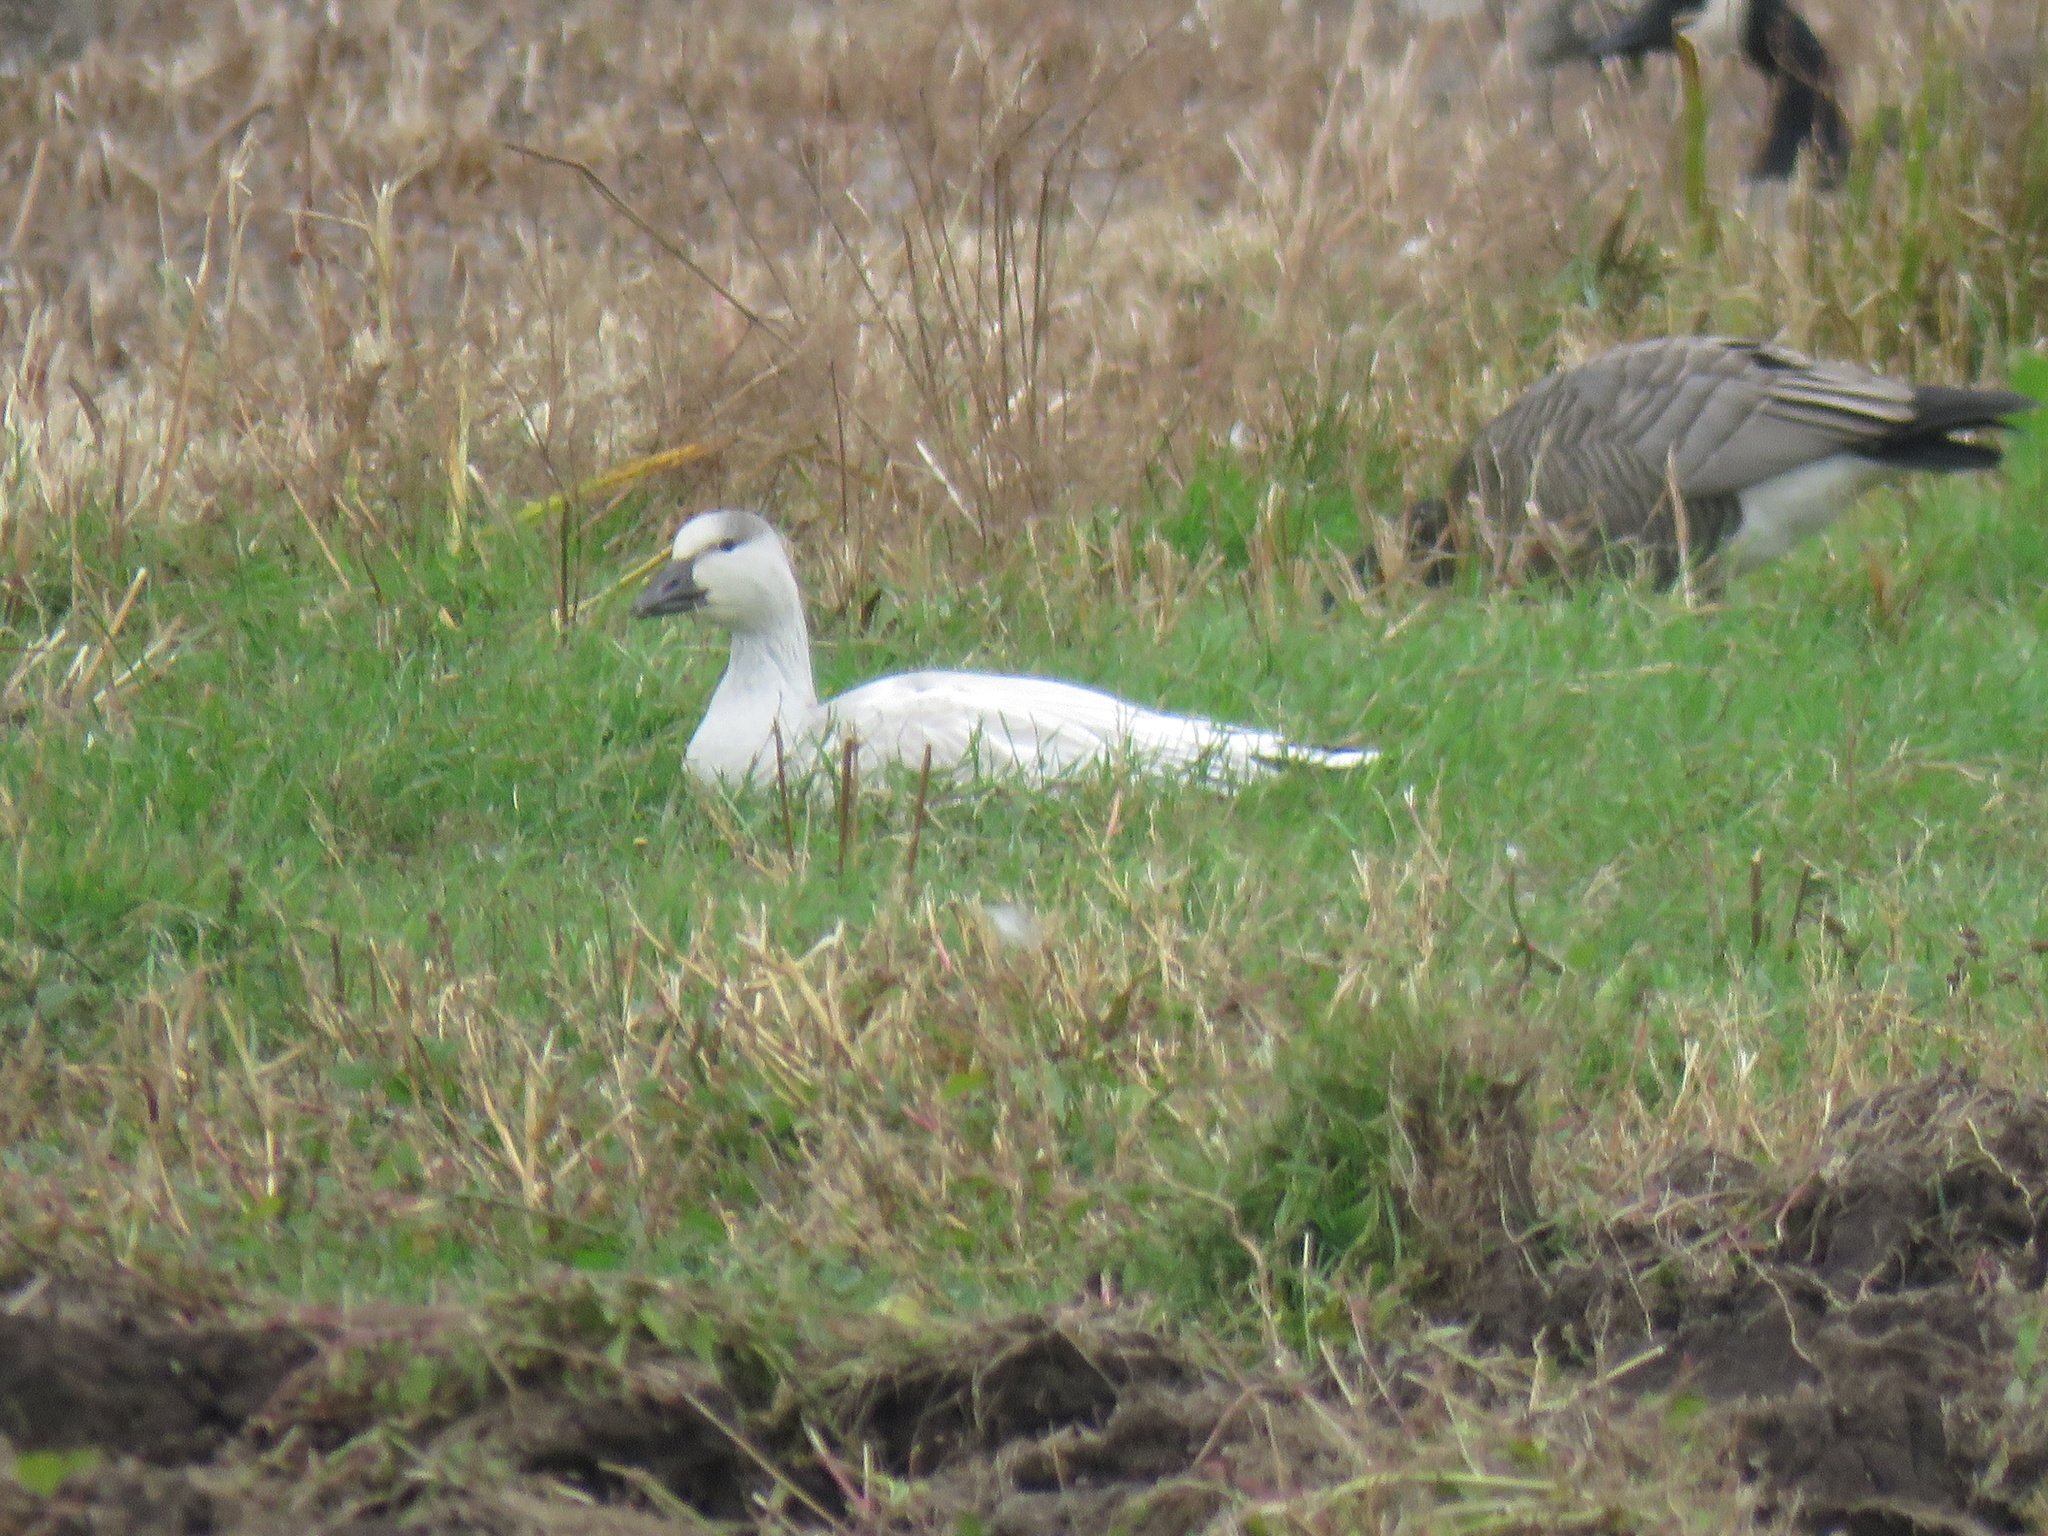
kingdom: Animalia
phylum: Chordata
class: Aves
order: Anseriformes
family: Anatidae
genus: Anser
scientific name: Anser caerulescens
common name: Snow goose
